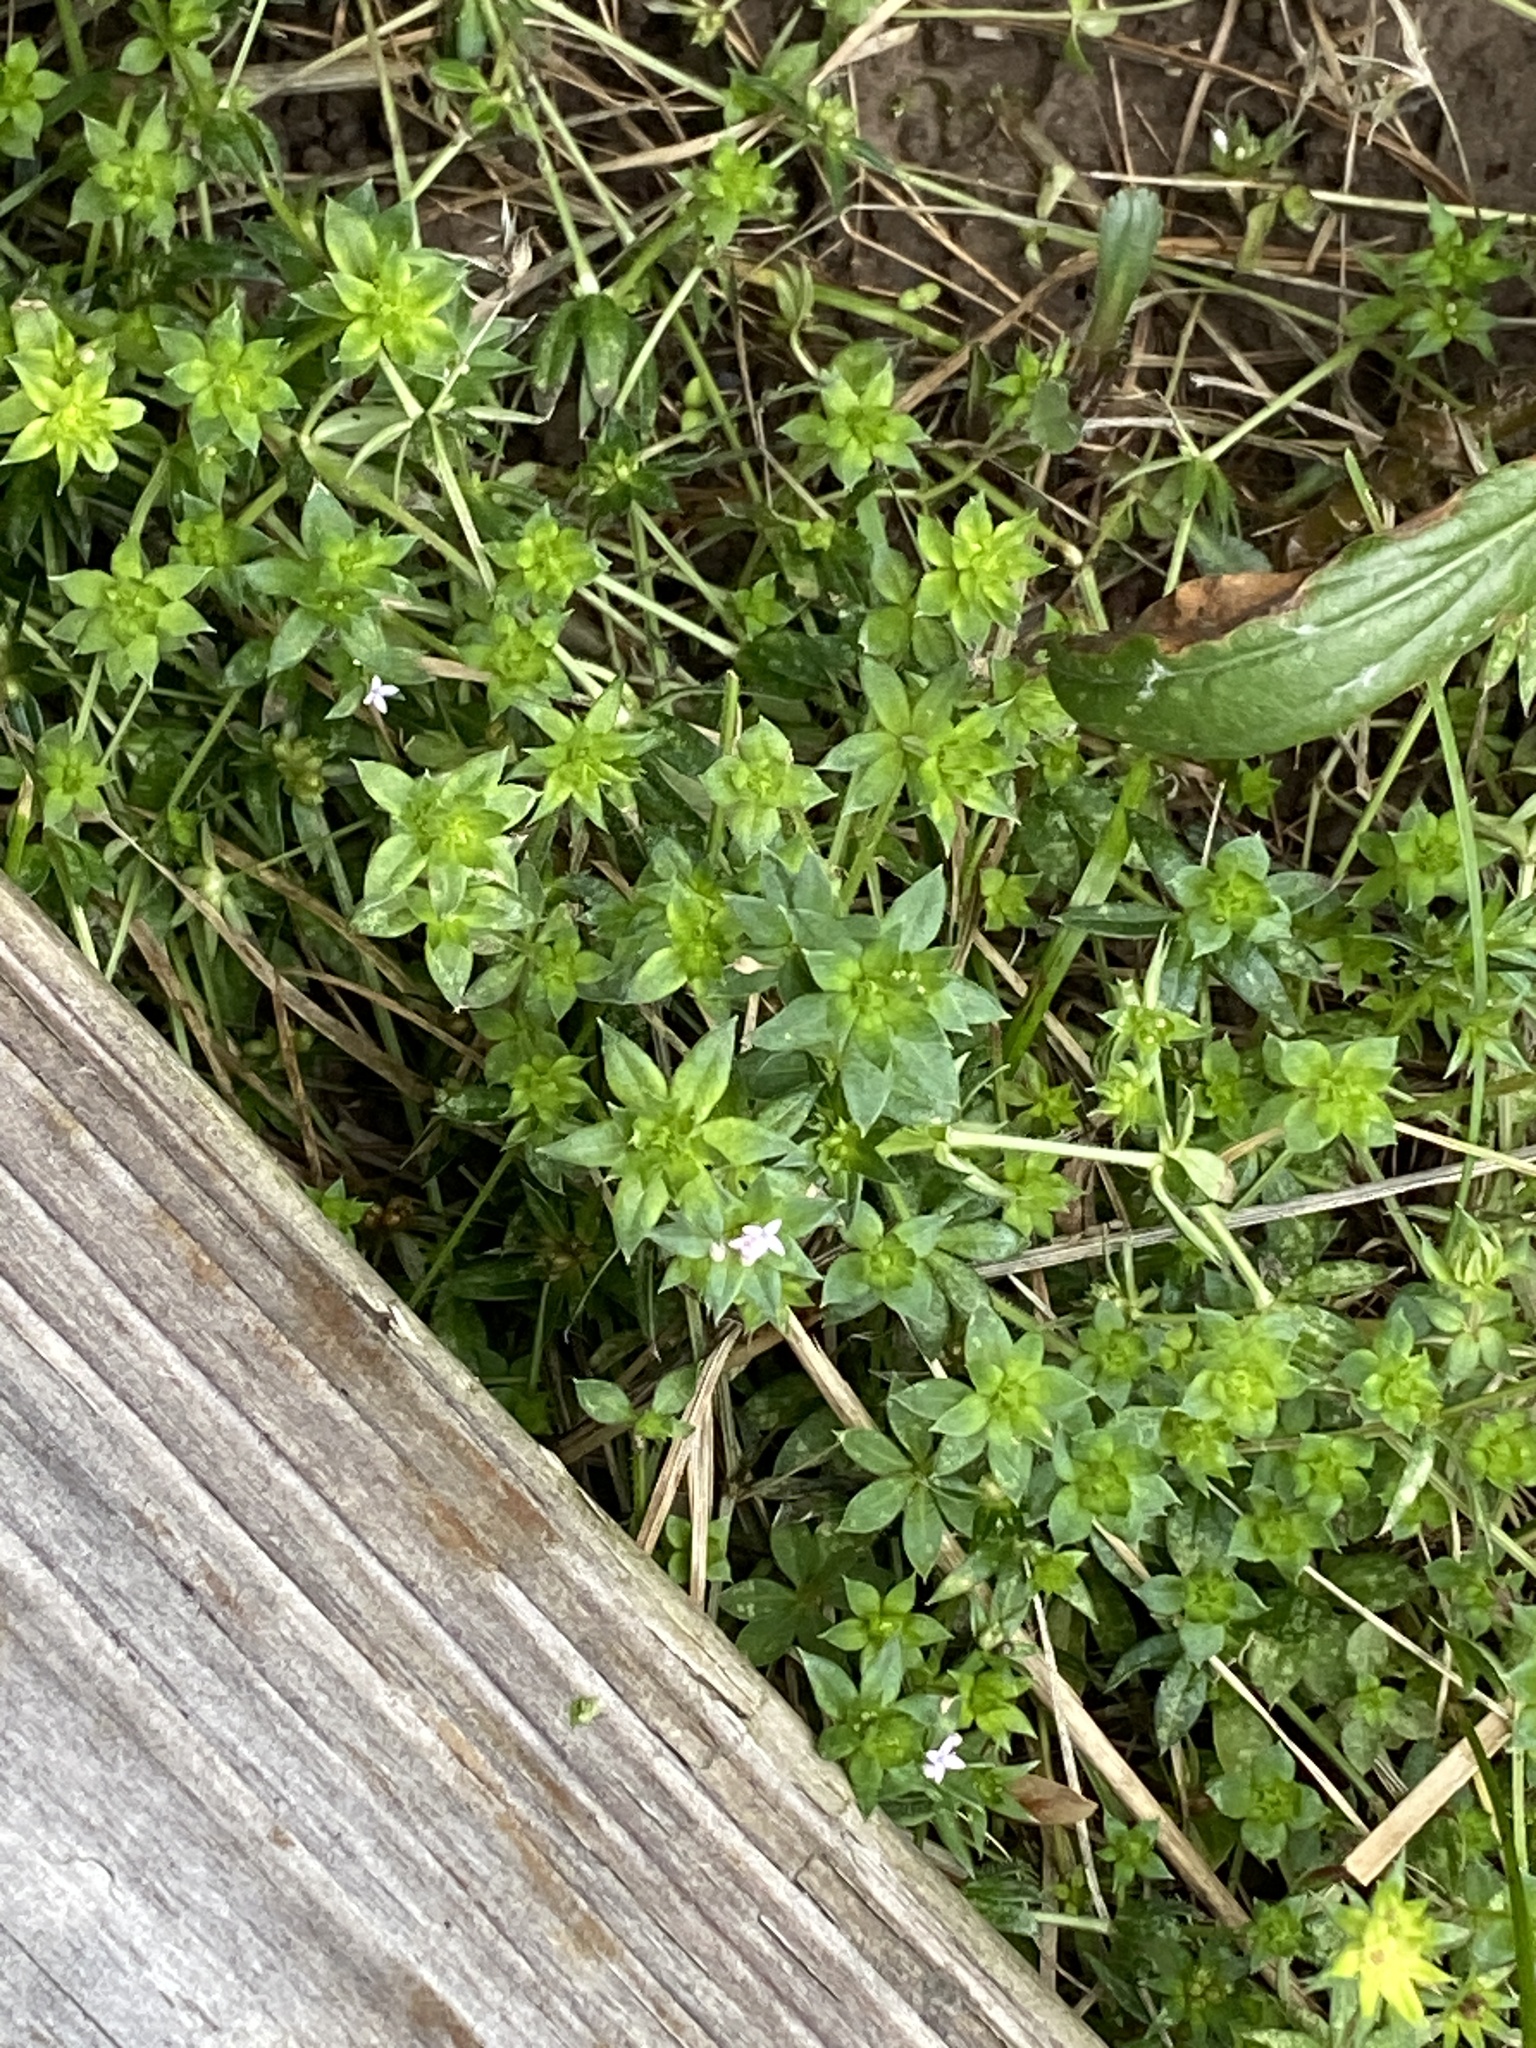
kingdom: Plantae
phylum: Tracheophyta
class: Magnoliopsida
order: Gentianales
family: Rubiaceae
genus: Sherardia
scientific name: Sherardia arvensis
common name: Field madder
